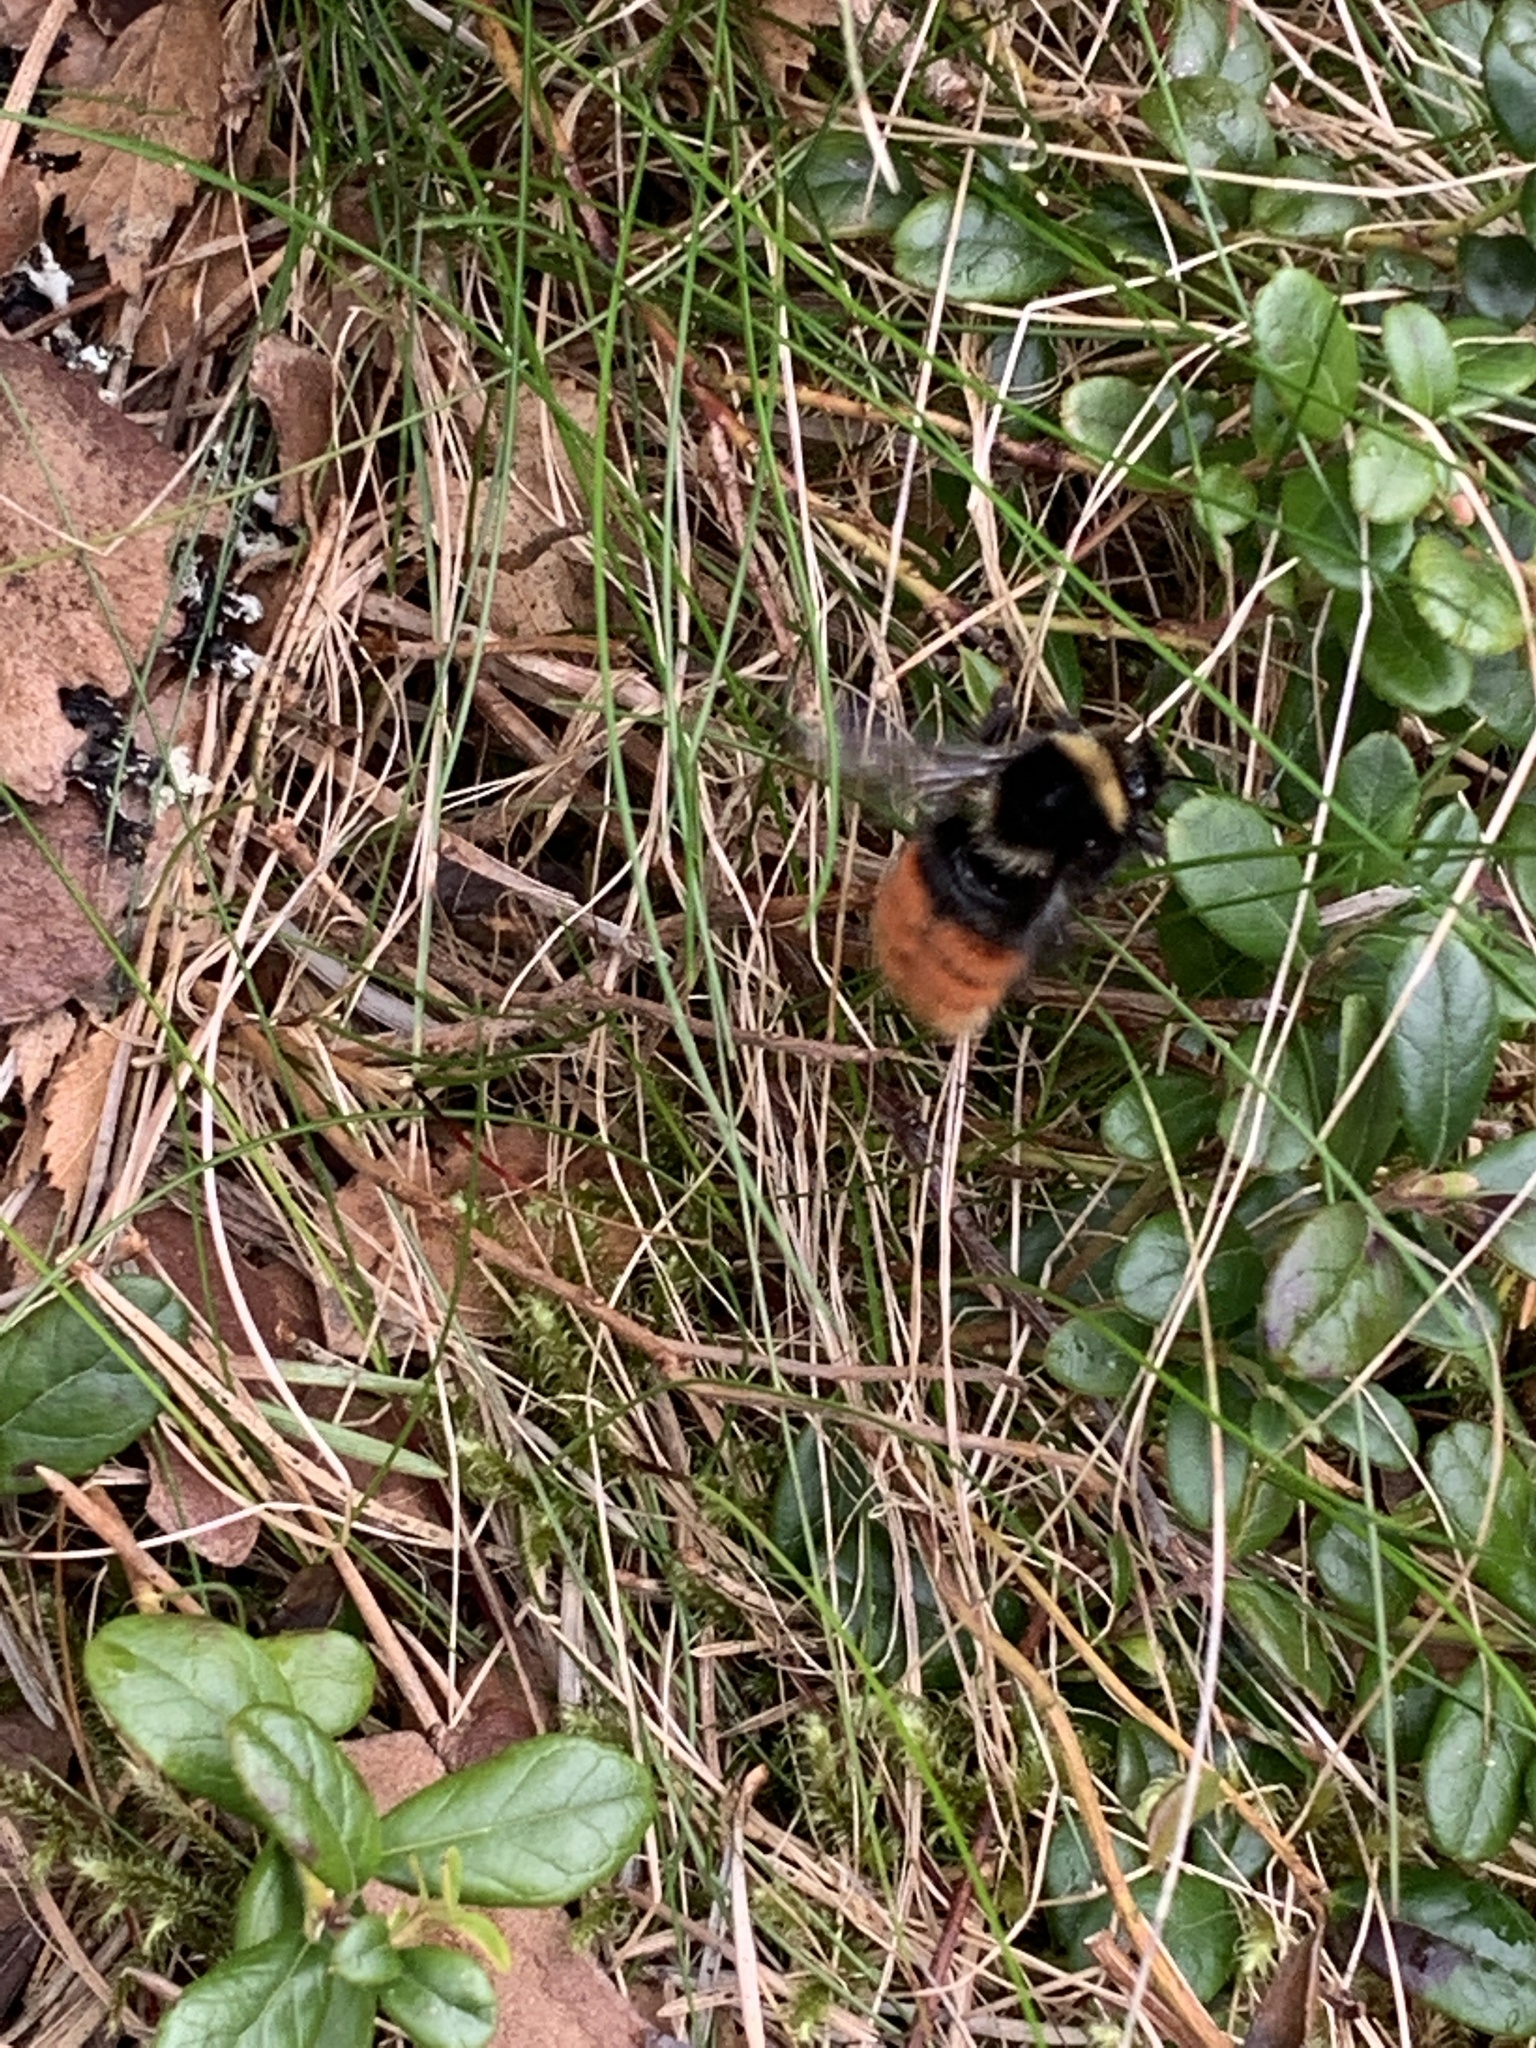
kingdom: Animalia
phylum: Arthropoda
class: Insecta
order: Hymenoptera
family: Apidae
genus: Bombus
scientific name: Bombus monticola
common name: Bilberry humble-bee
